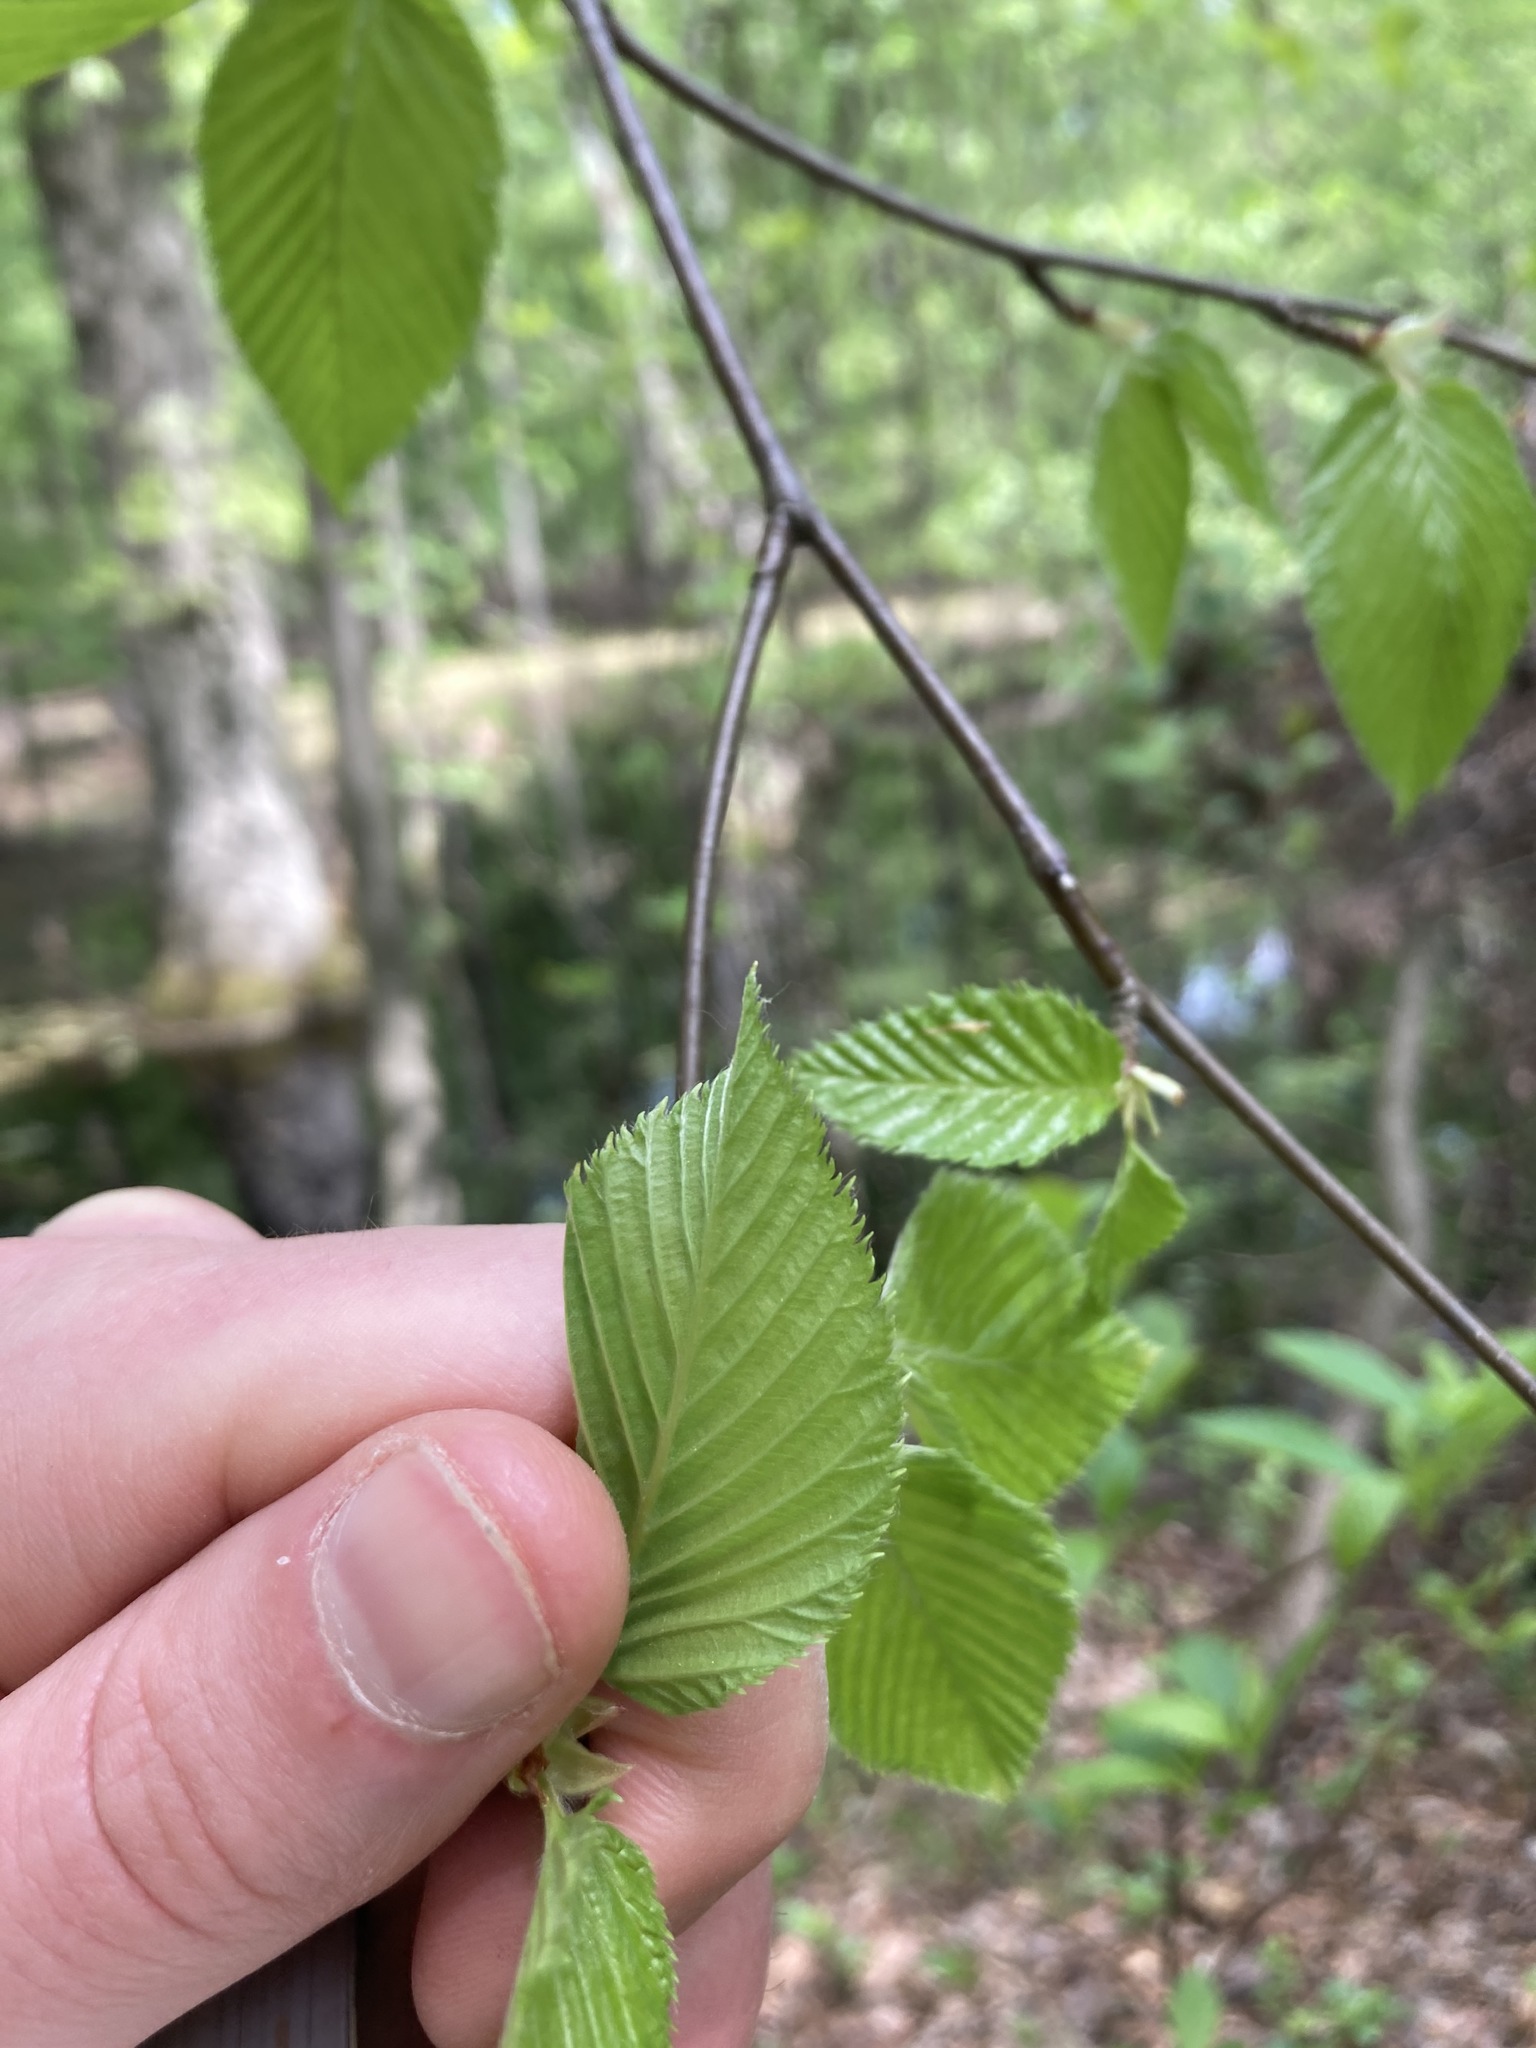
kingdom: Plantae
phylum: Tracheophyta
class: Magnoliopsida
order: Fagales
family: Betulaceae
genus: Betula
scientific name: Betula lenta
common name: Black birch
